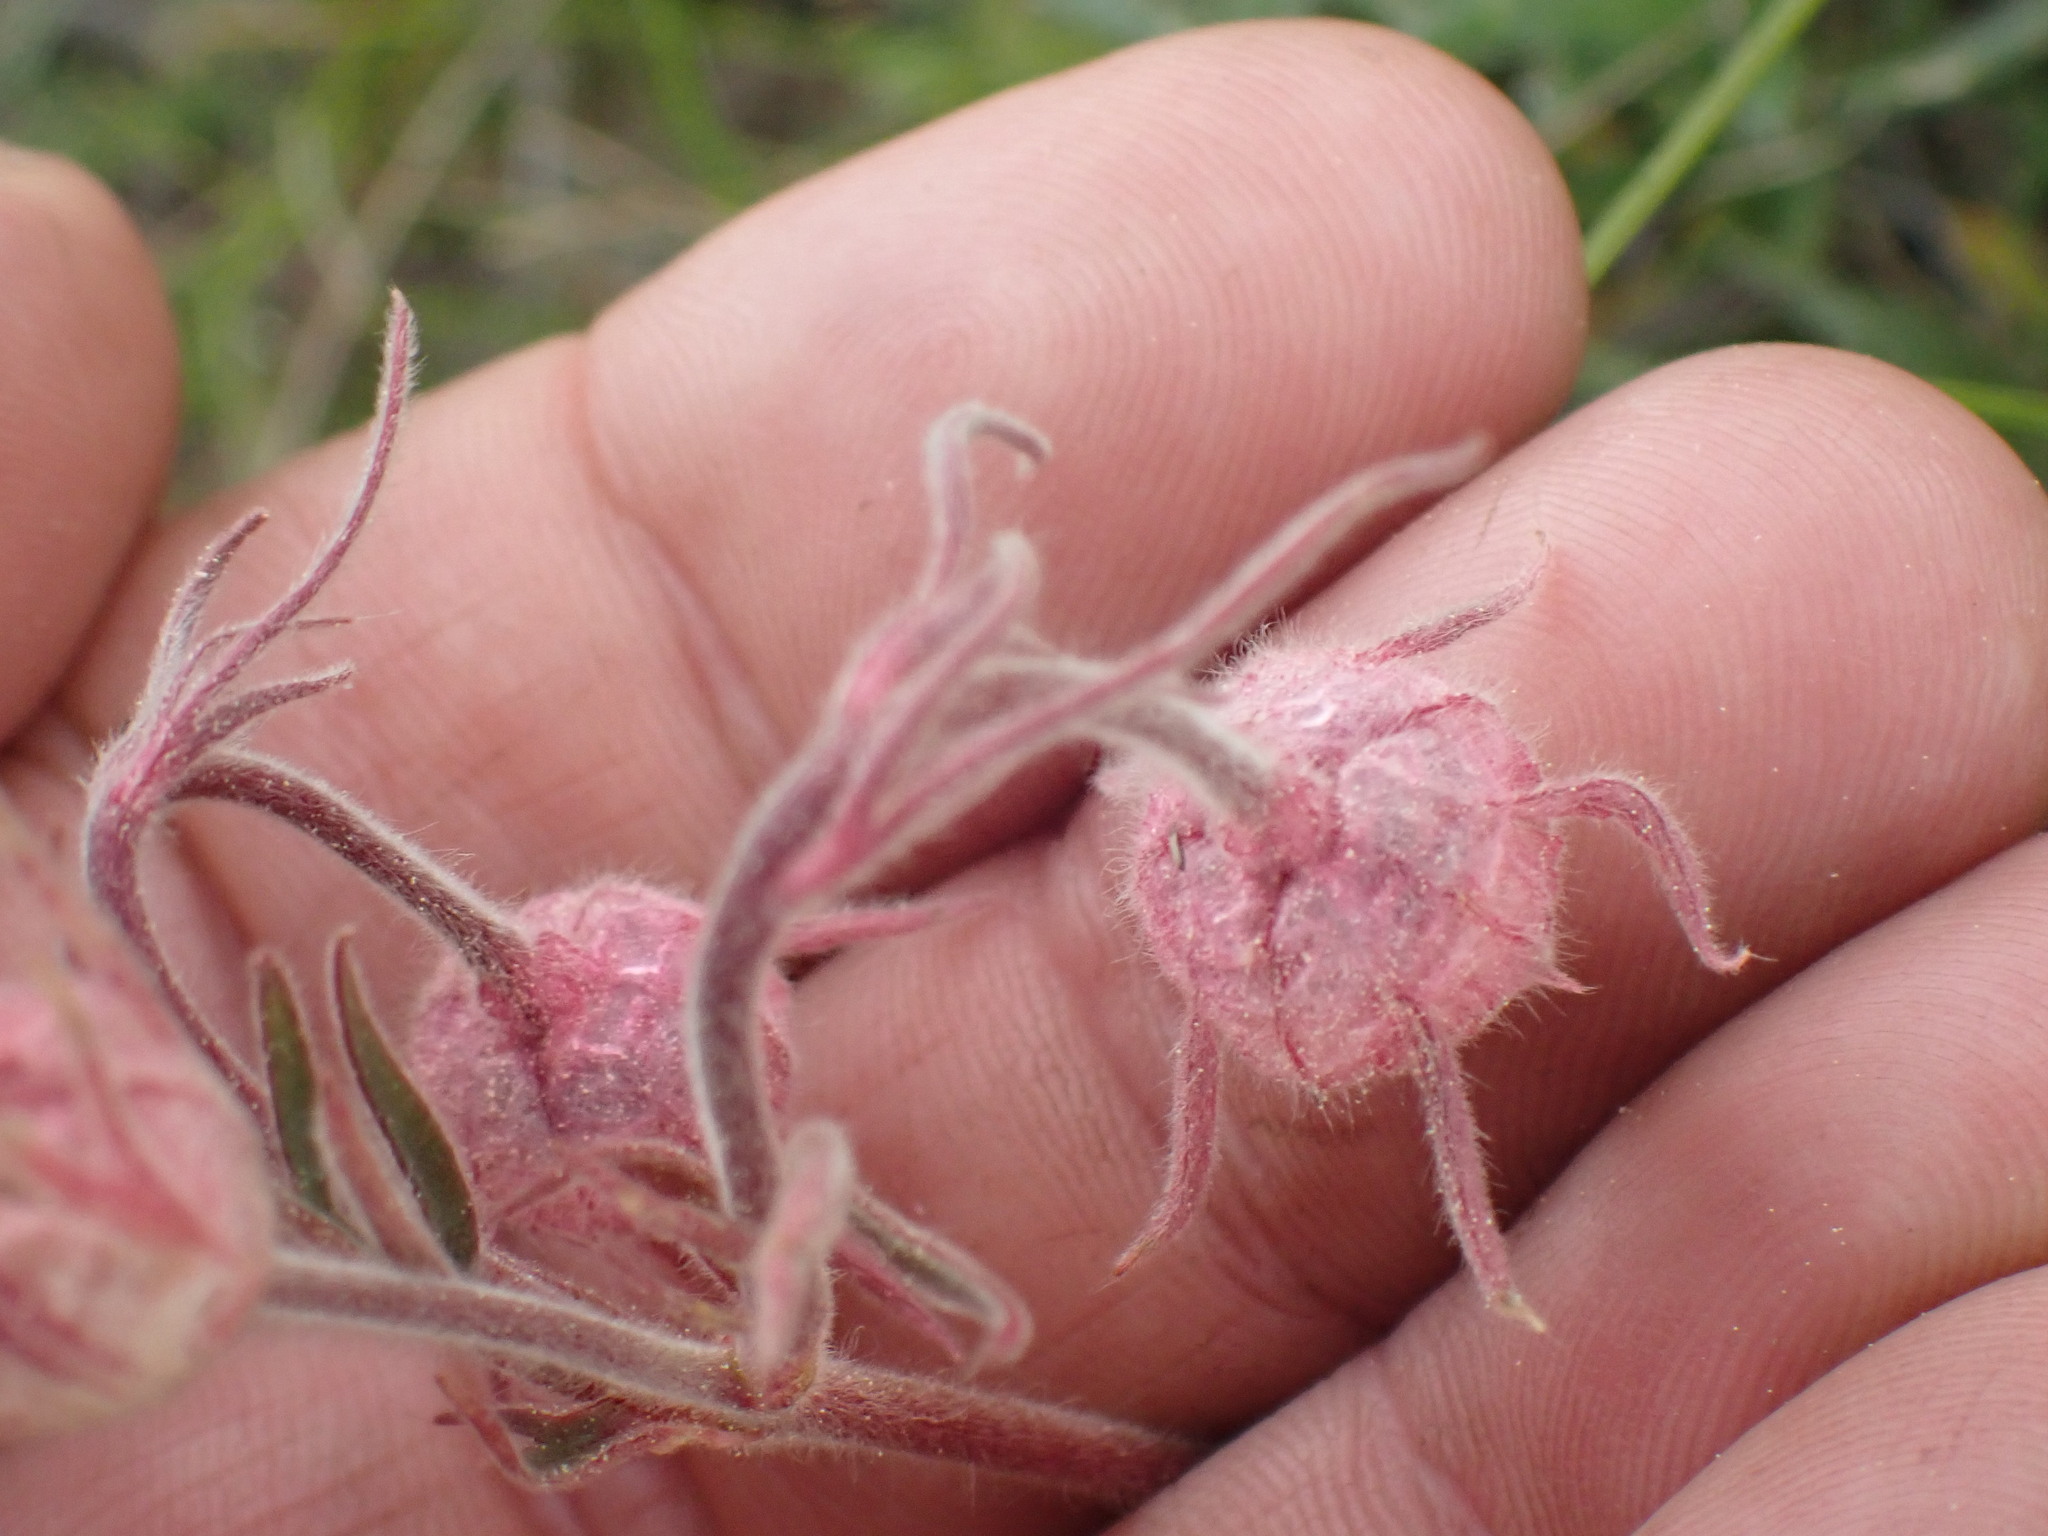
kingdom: Plantae
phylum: Tracheophyta
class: Magnoliopsida
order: Rosales
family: Rosaceae
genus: Geum
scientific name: Geum triflorum
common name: Old man's whiskers
